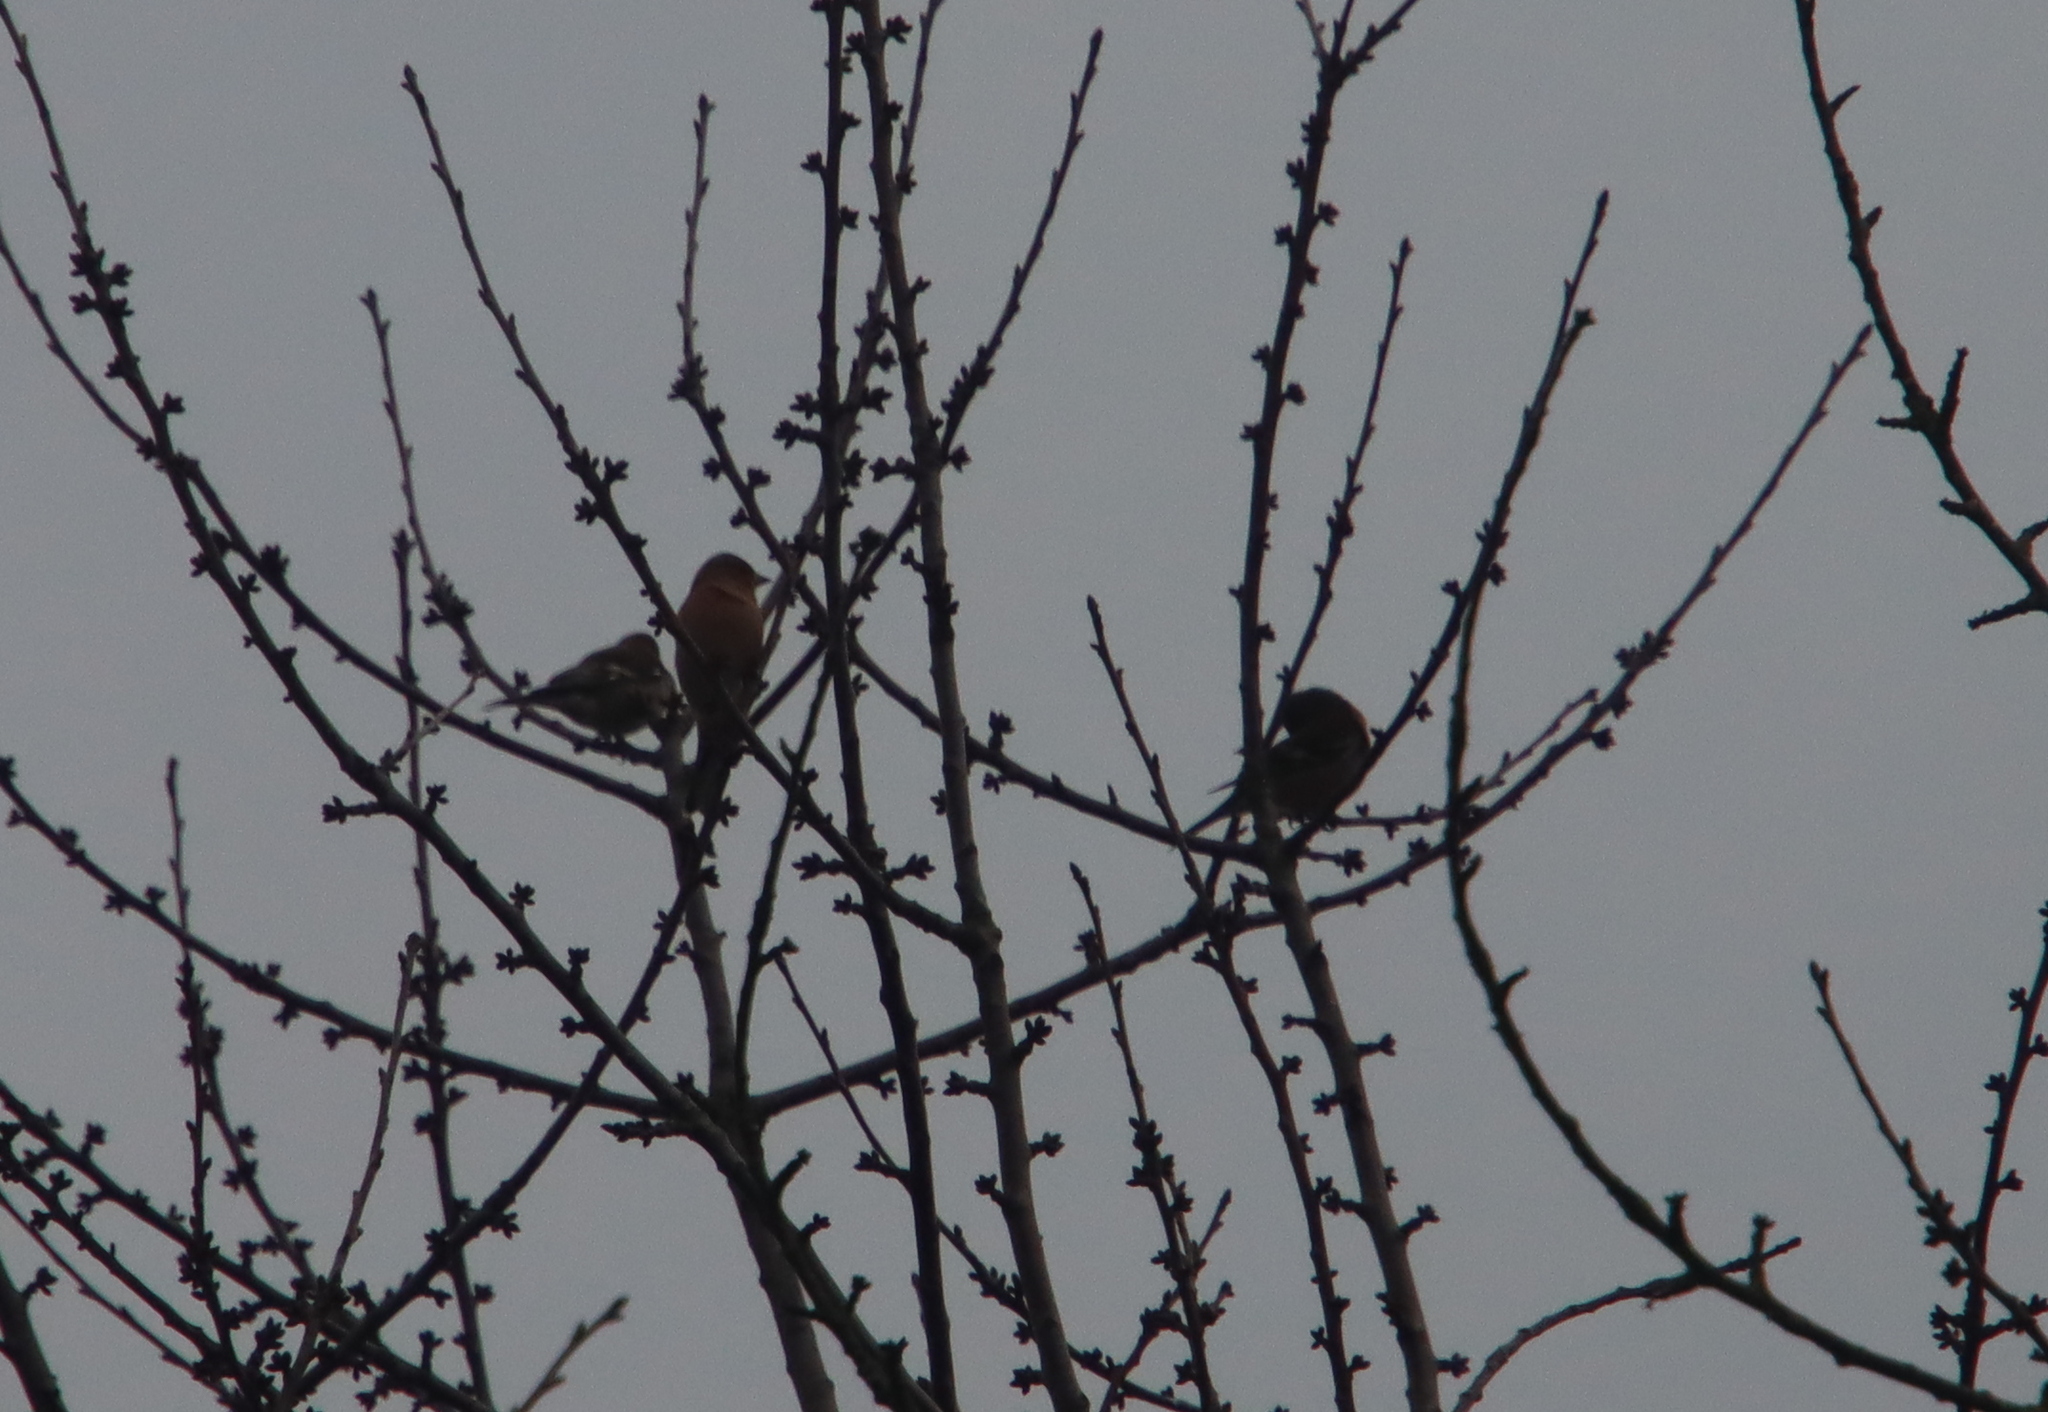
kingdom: Animalia
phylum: Chordata
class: Aves
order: Passeriformes
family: Fringillidae
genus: Fringilla
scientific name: Fringilla coelebs
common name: Common chaffinch
